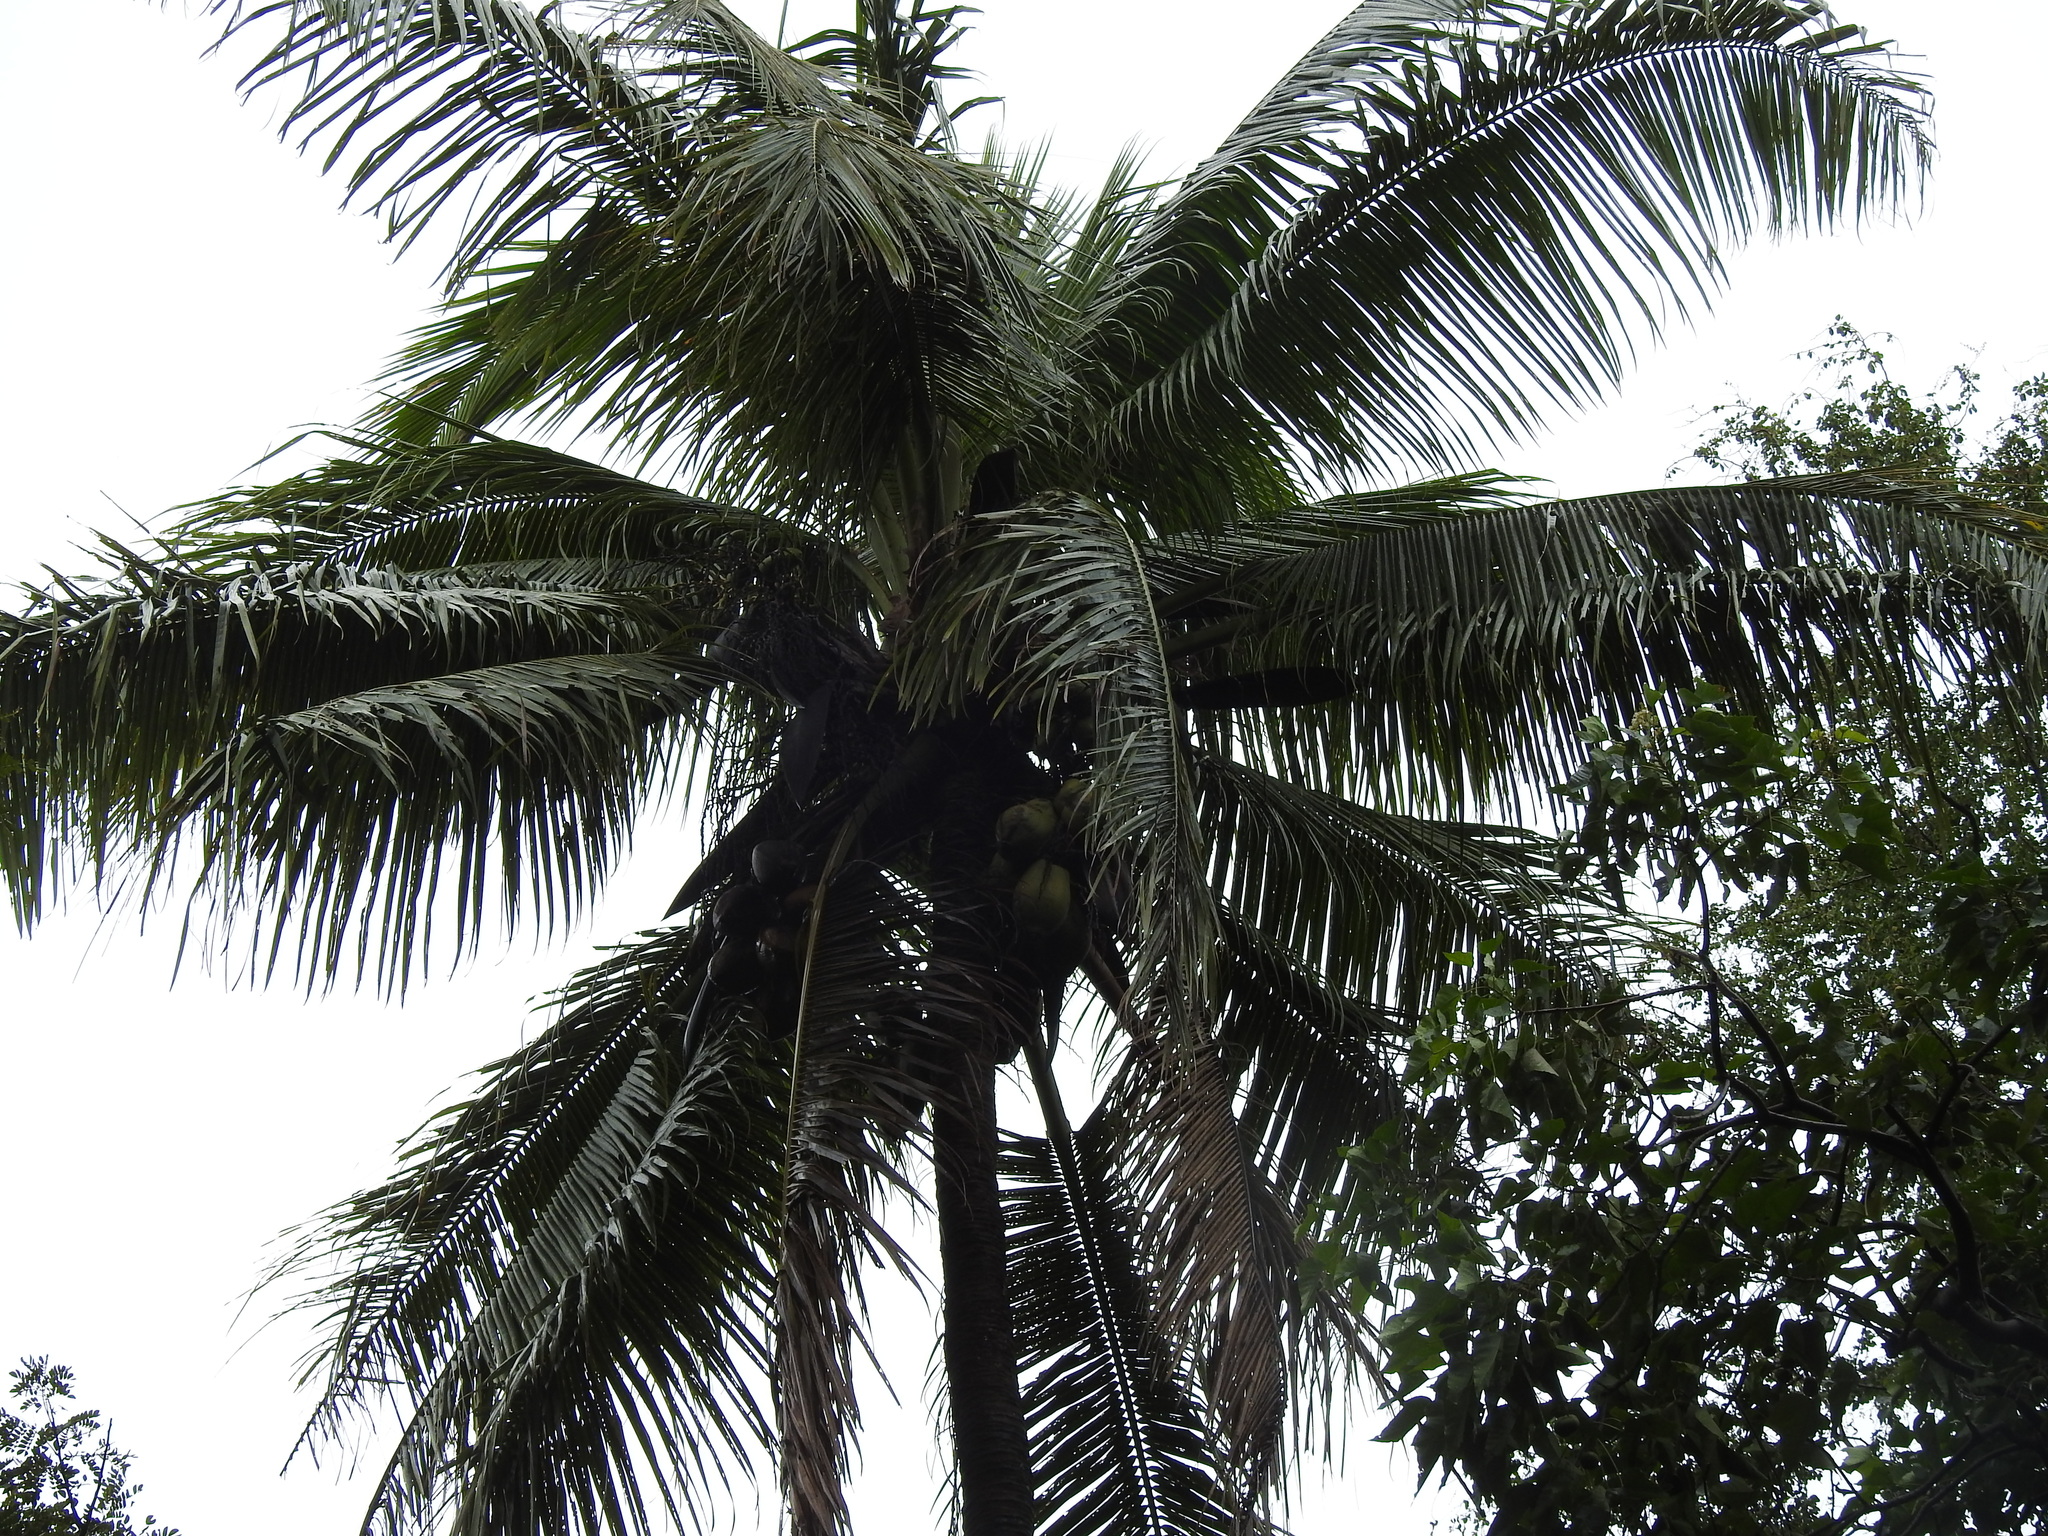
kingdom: Plantae
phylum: Tracheophyta
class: Liliopsida
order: Arecales
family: Arecaceae
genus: Cocos
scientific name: Cocos nucifera
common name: Coconut palm
